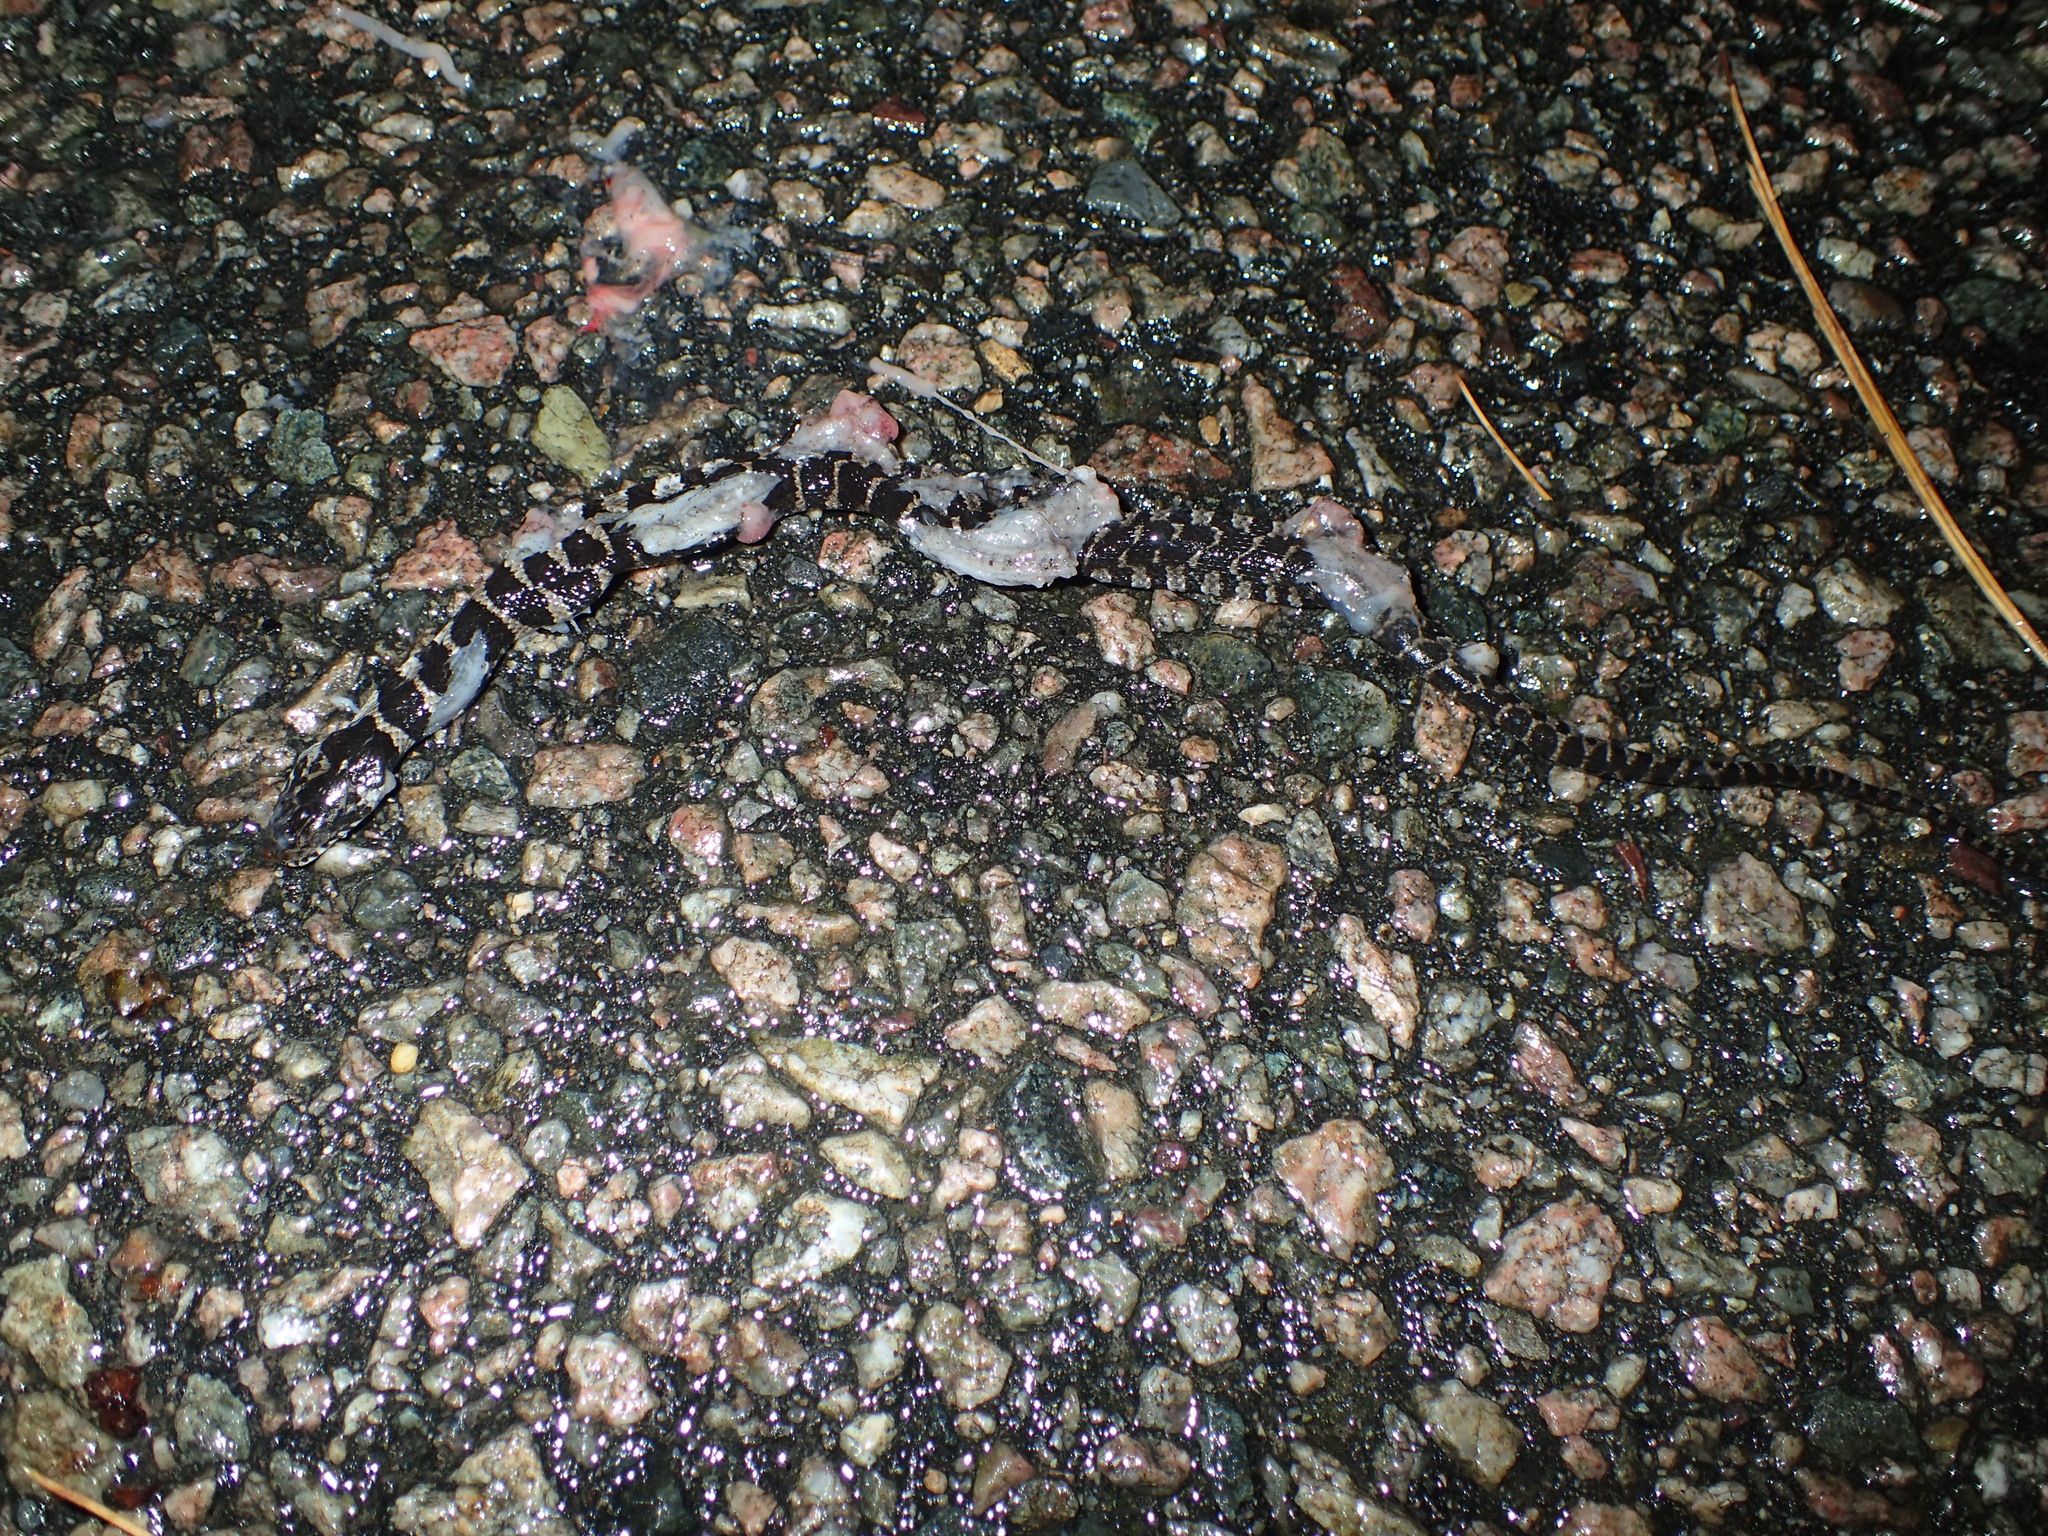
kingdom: Animalia
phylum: Chordata
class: Squamata
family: Colubridae
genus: Nerodia
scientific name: Nerodia sipedon
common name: Northern water snake
